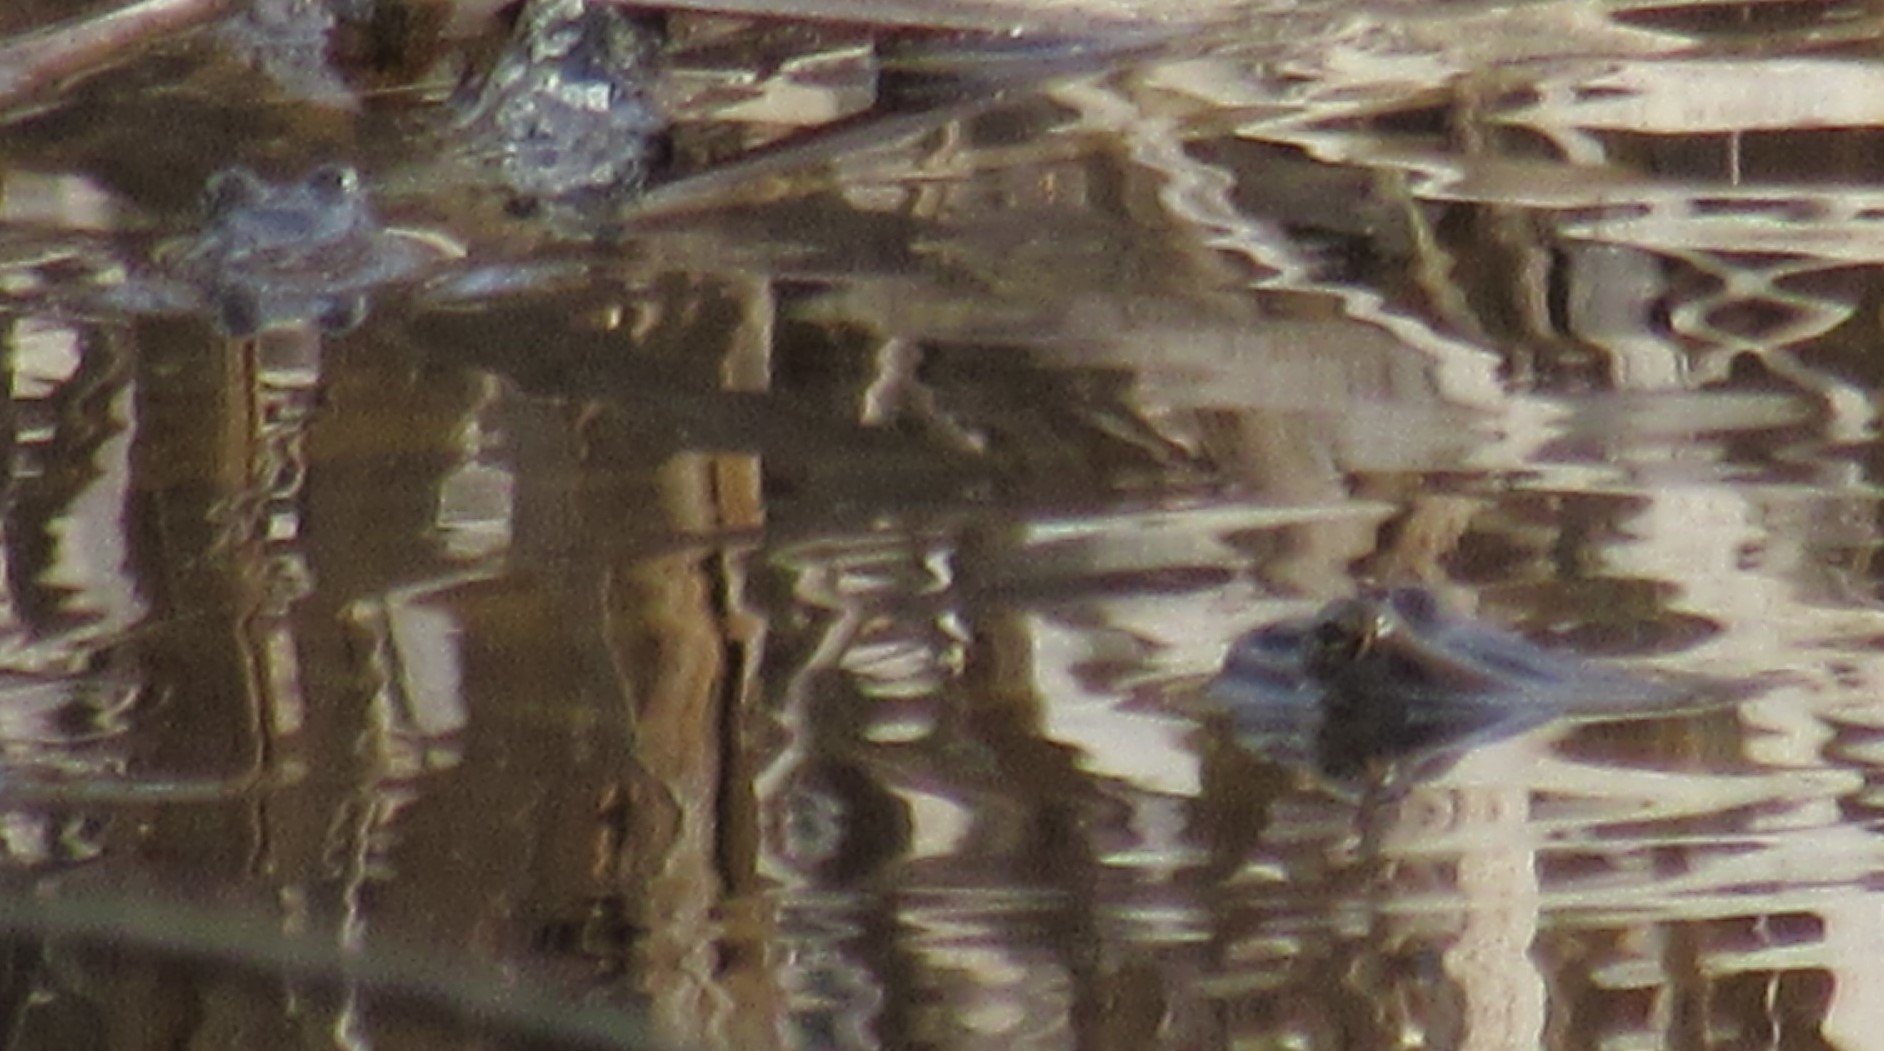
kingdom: Animalia
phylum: Chordata
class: Amphibia
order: Anura
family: Ranidae
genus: Lithobates
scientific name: Lithobates pipiens
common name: Northern leopard frog
